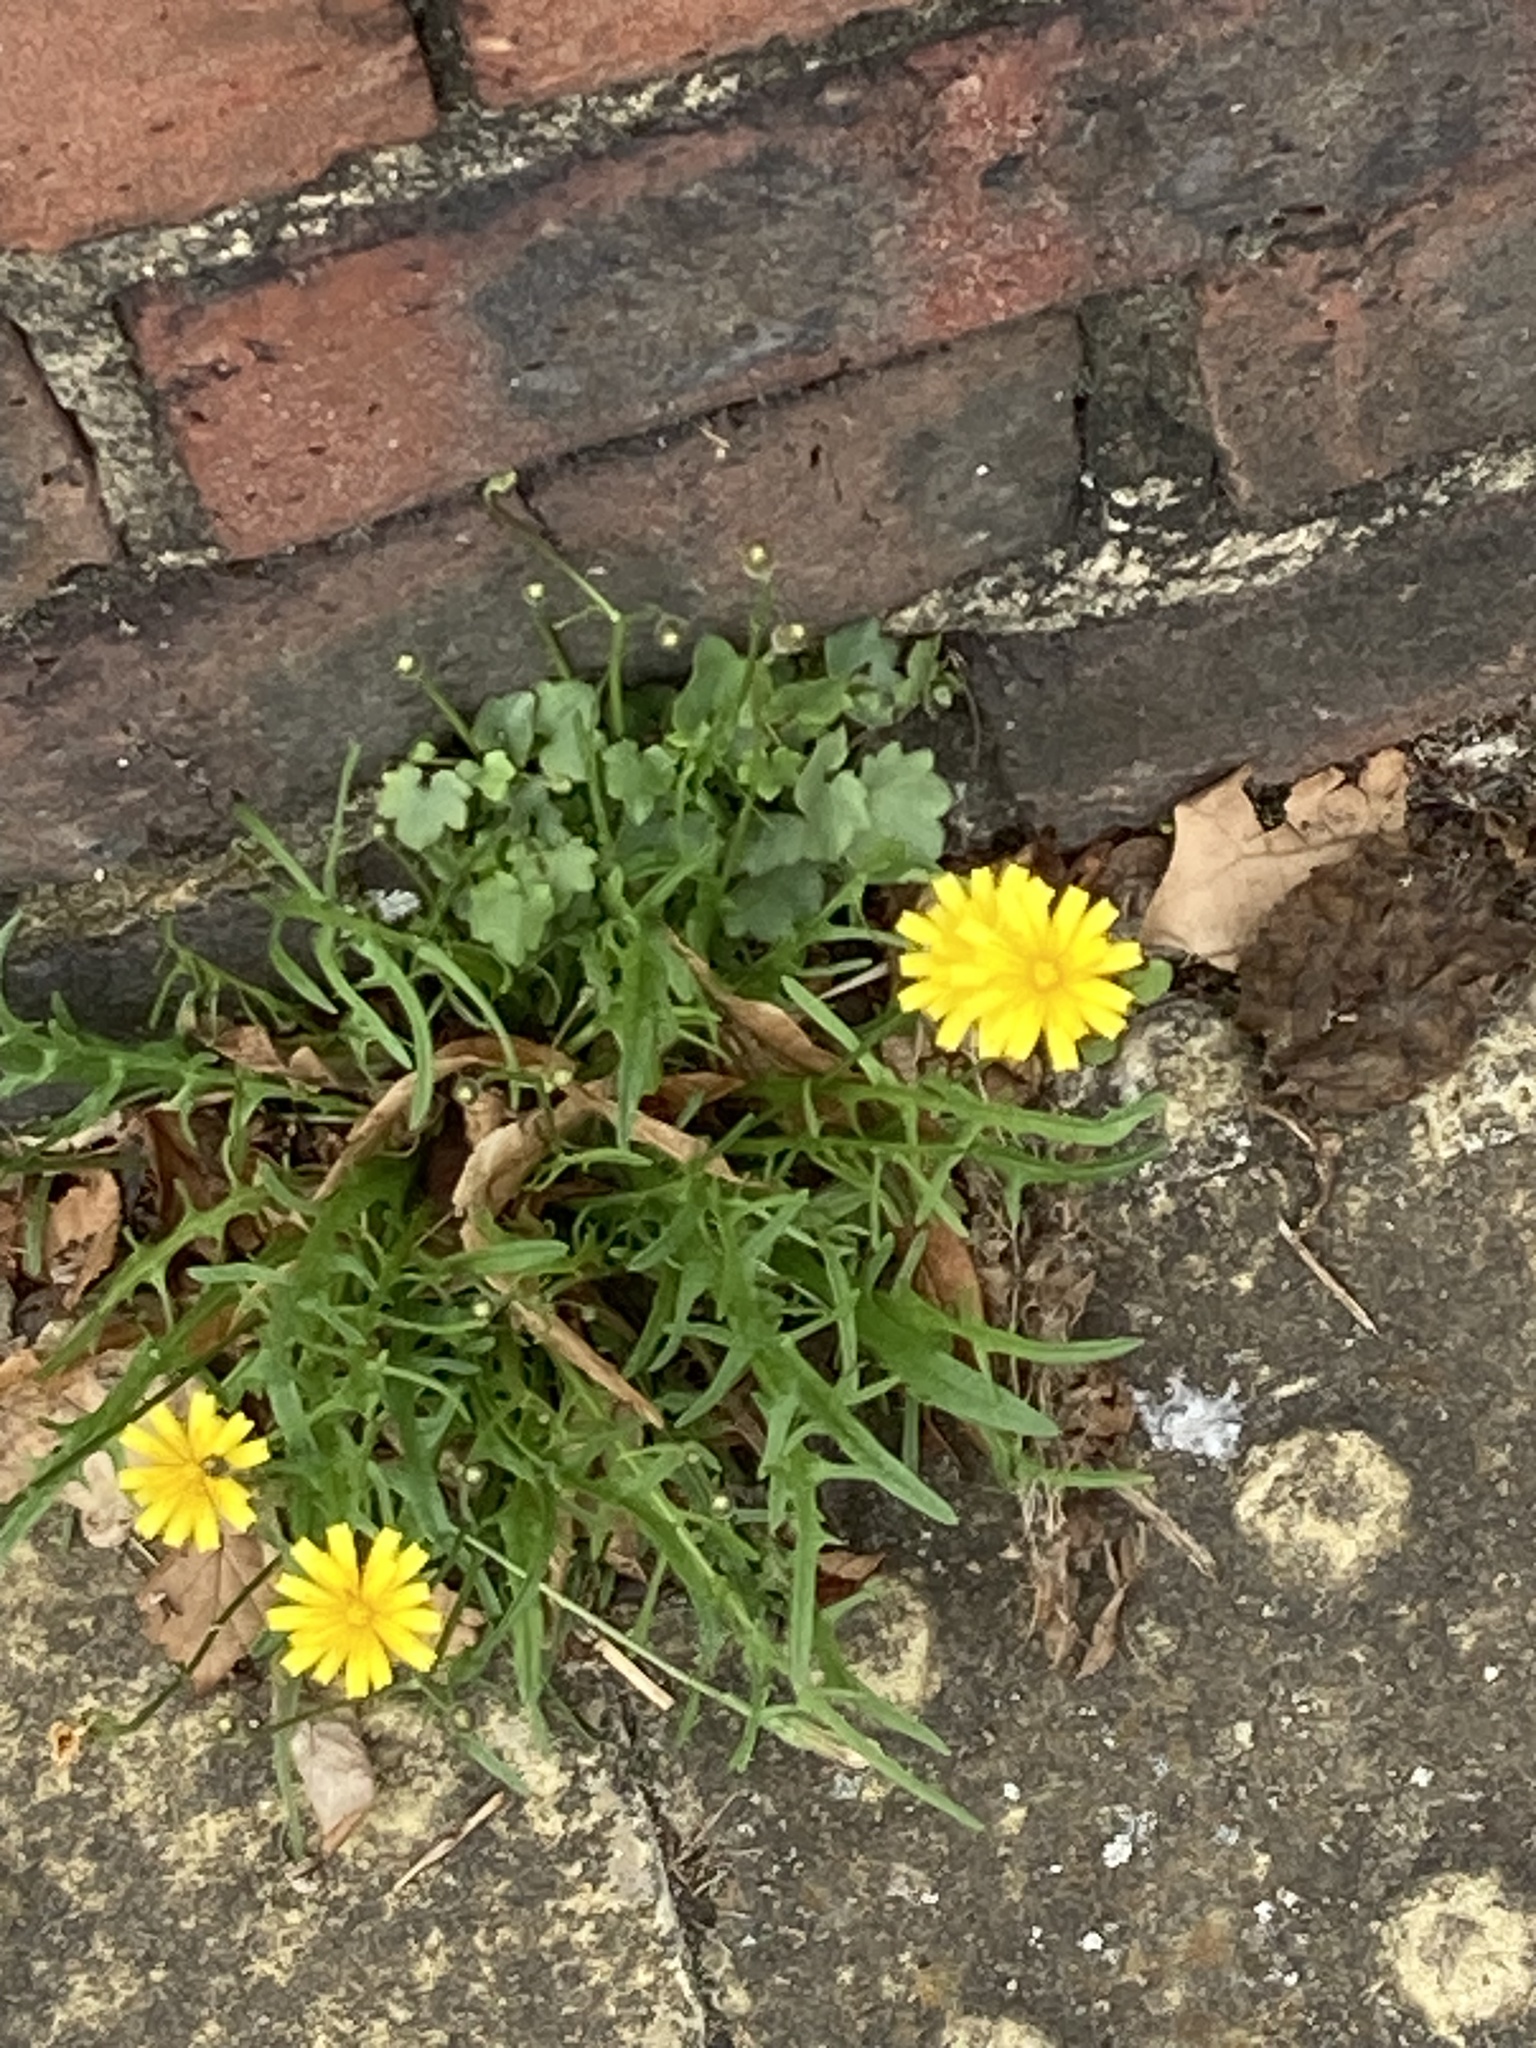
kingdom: Plantae
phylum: Tracheophyta
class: Magnoliopsida
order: Asterales
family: Asteraceae
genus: Scorzoneroides
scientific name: Scorzoneroides autumnalis
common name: Autumn hawkbit
